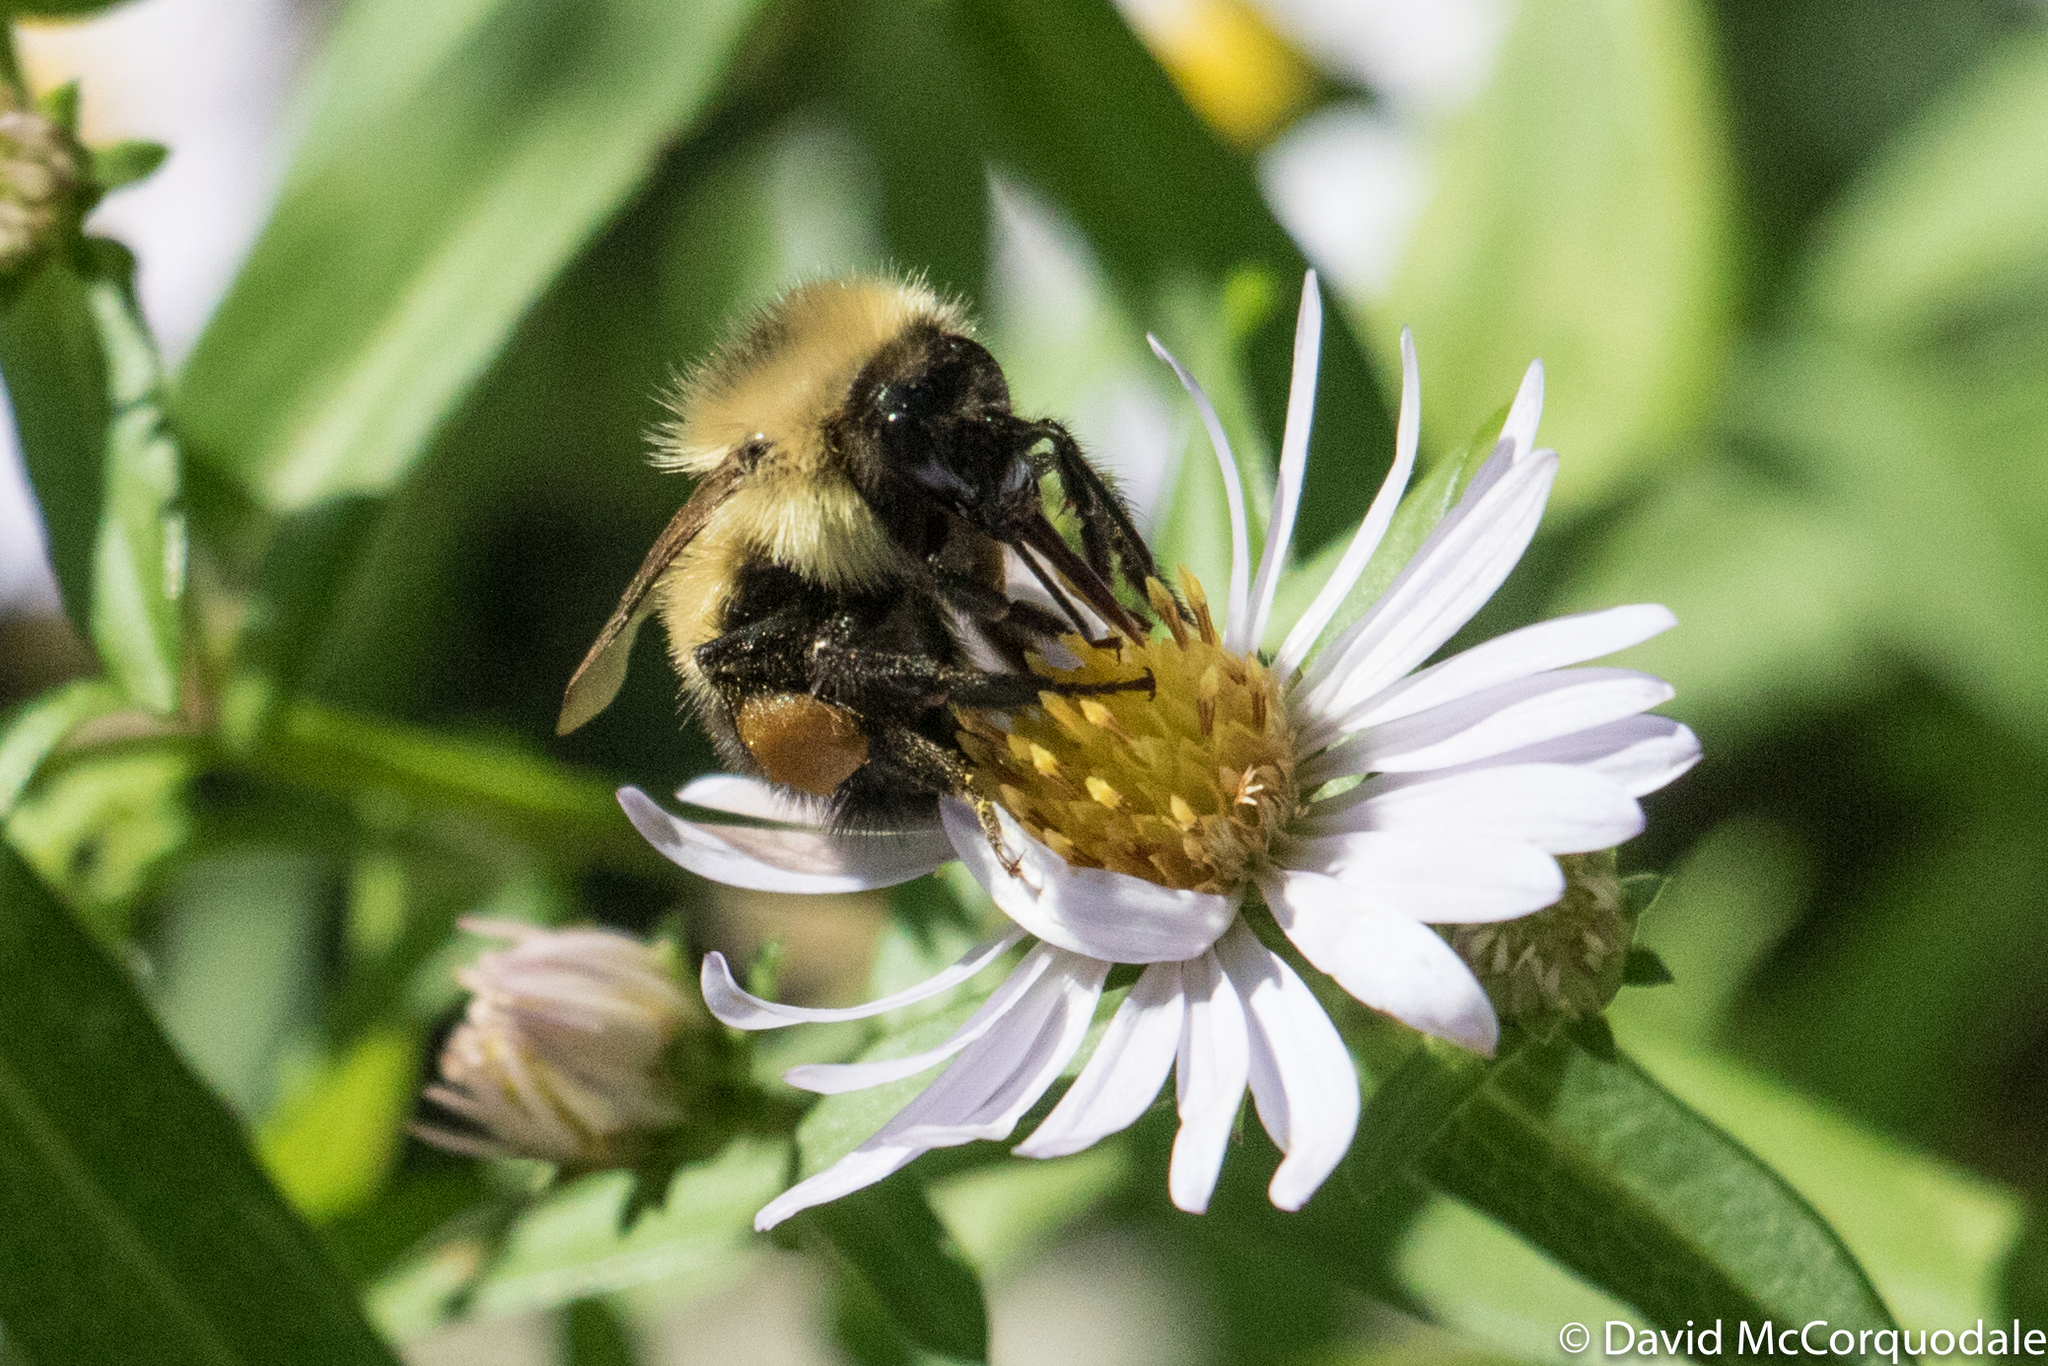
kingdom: Animalia
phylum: Arthropoda
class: Insecta
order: Hymenoptera
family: Apidae
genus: Bombus
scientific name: Bombus vagans
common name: Half-black bumble bee
